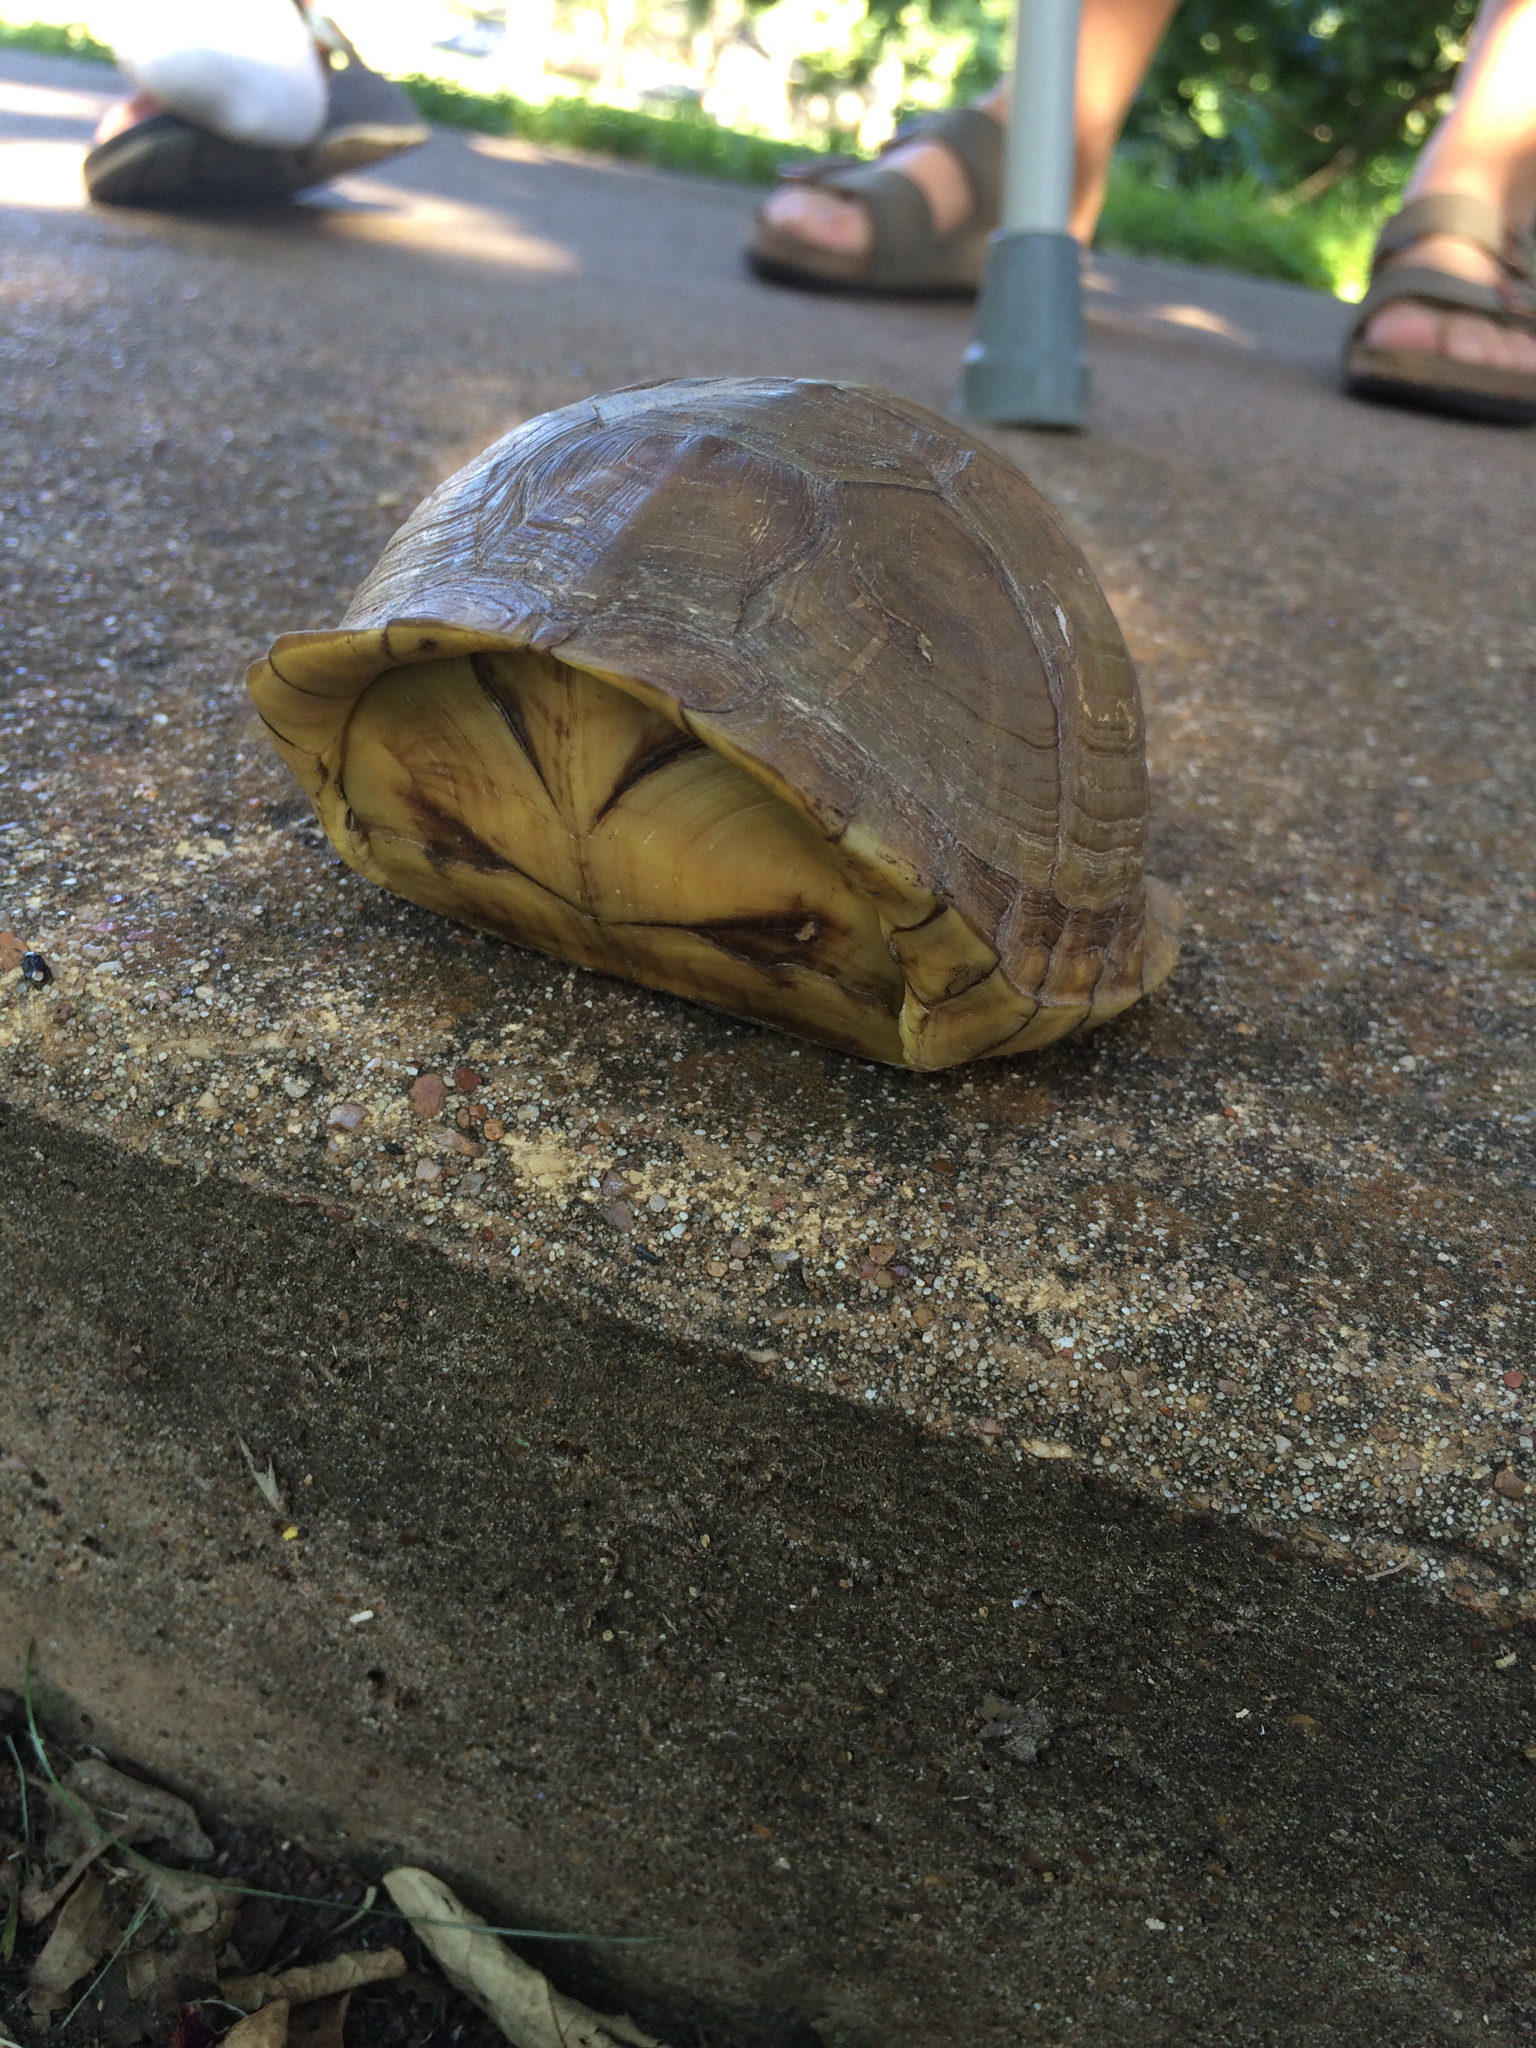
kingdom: Animalia
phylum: Chordata
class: Testudines
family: Emydidae
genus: Terrapene
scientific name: Terrapene carolina
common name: Common box turtle
